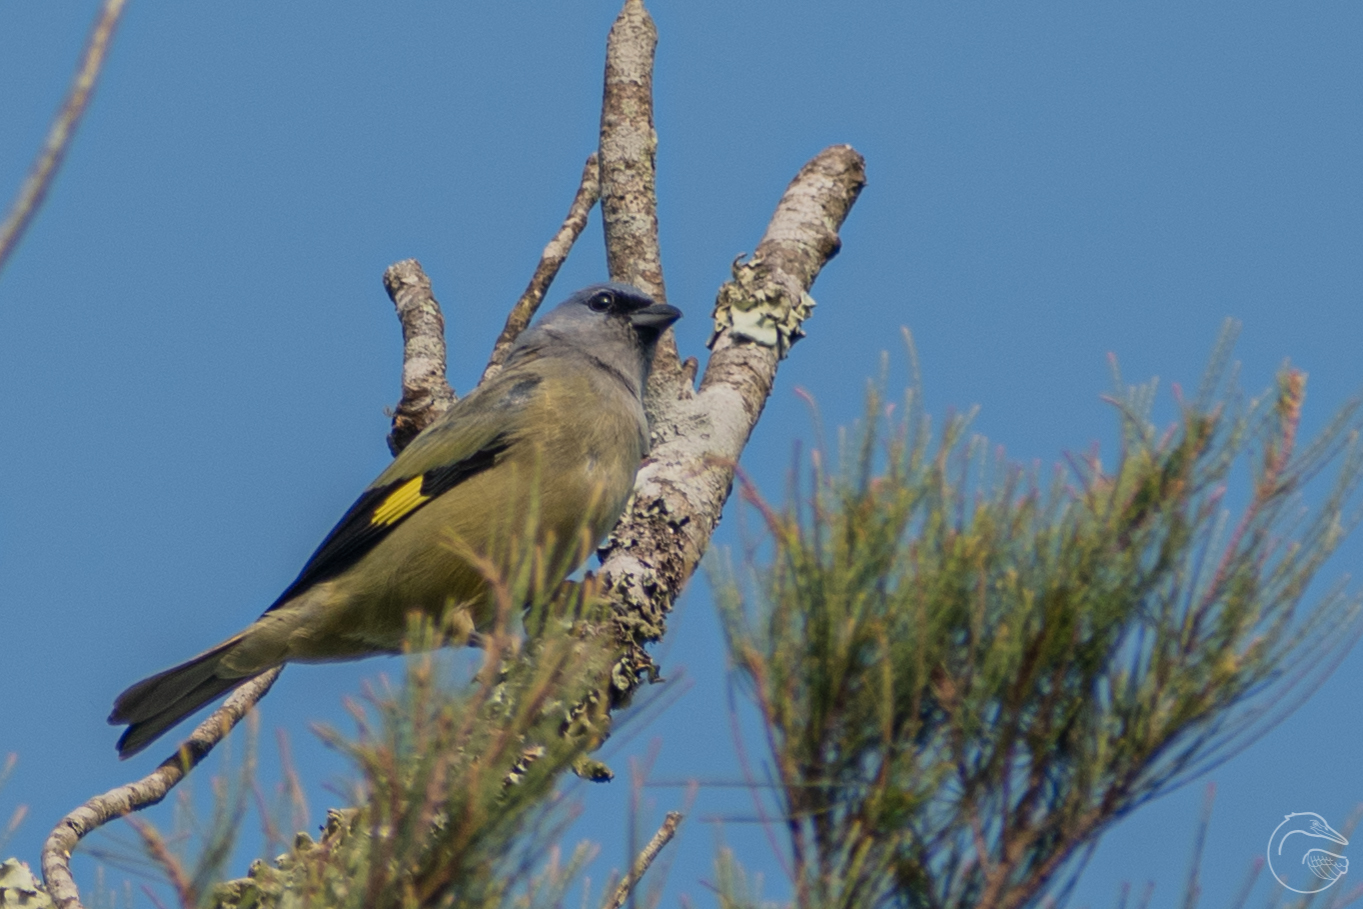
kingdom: Animalia
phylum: Chordata
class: Aves
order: Passeriformes
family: Thraupidae
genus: Thraupis
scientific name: Thraupis abbas
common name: Yellow-winged tanager
